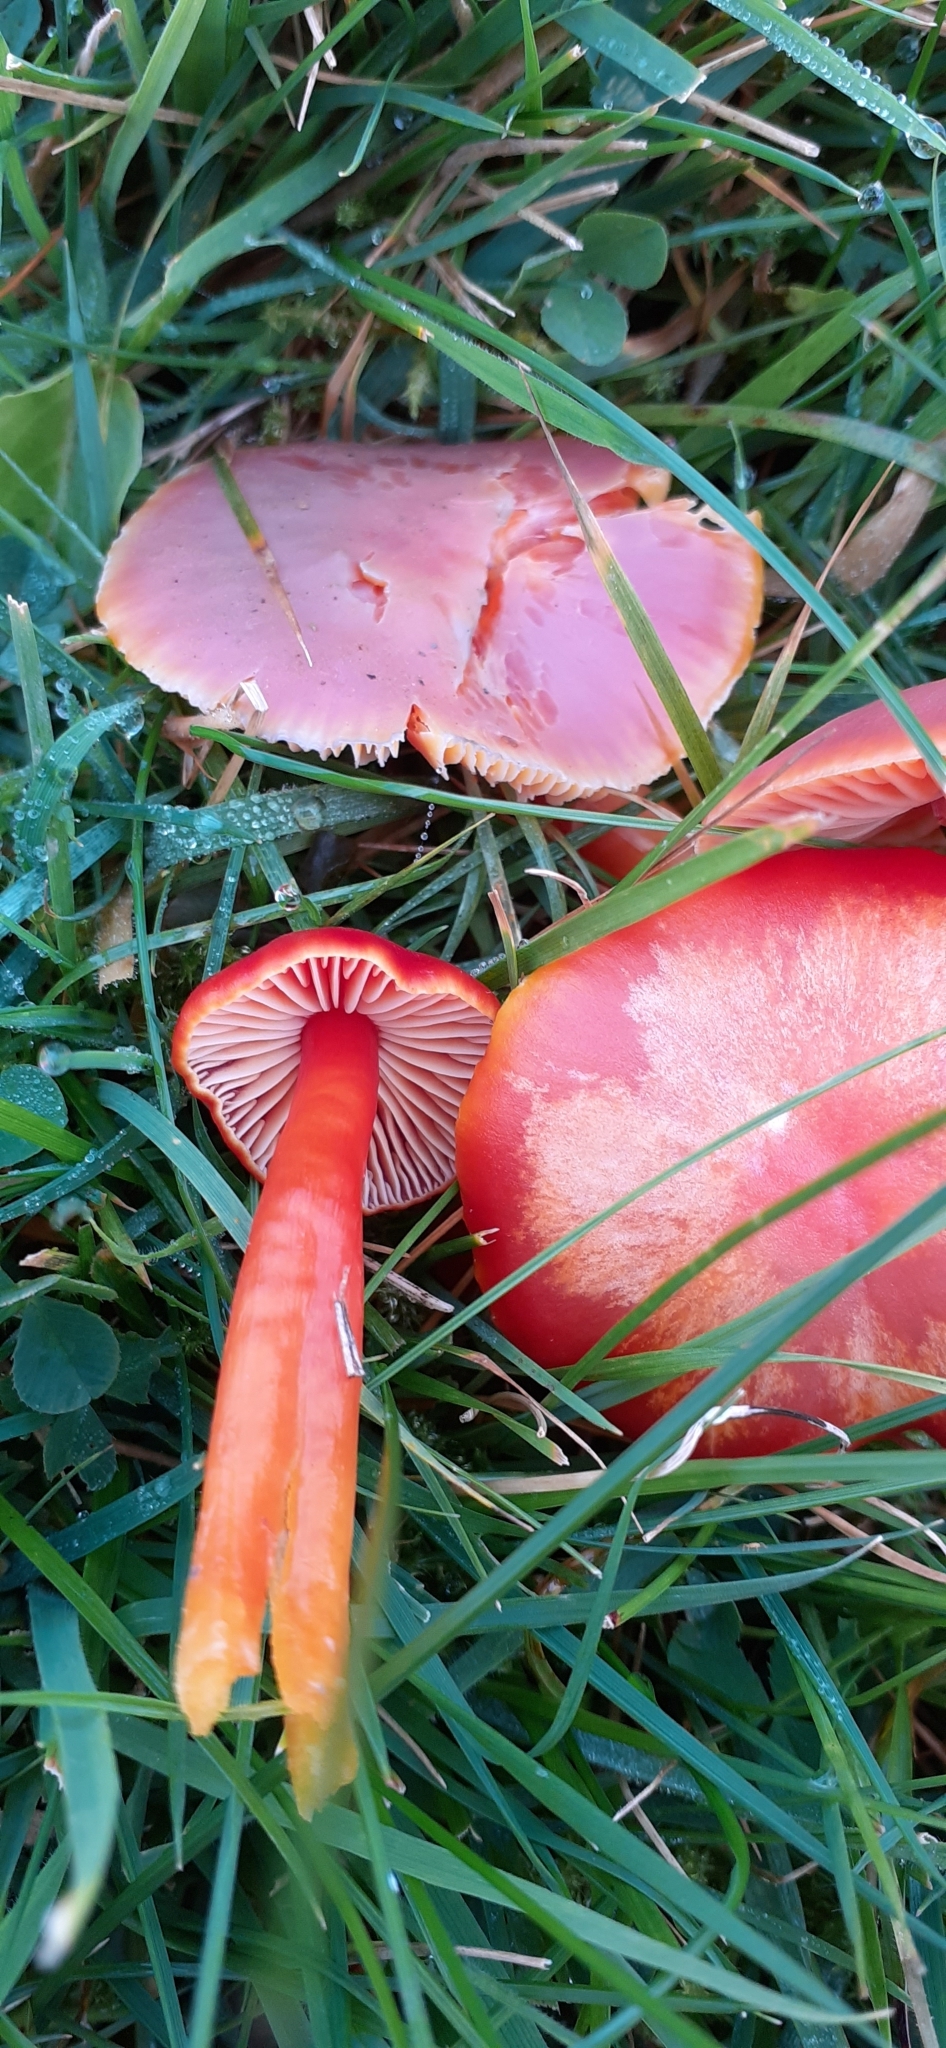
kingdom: Fungi
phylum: Basidiomycota
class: Agaricomycetes
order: Agaricales
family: Hygrophoraceae
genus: Hygrocybe
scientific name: Hygrocybe coccinea
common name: Scarlet hood
